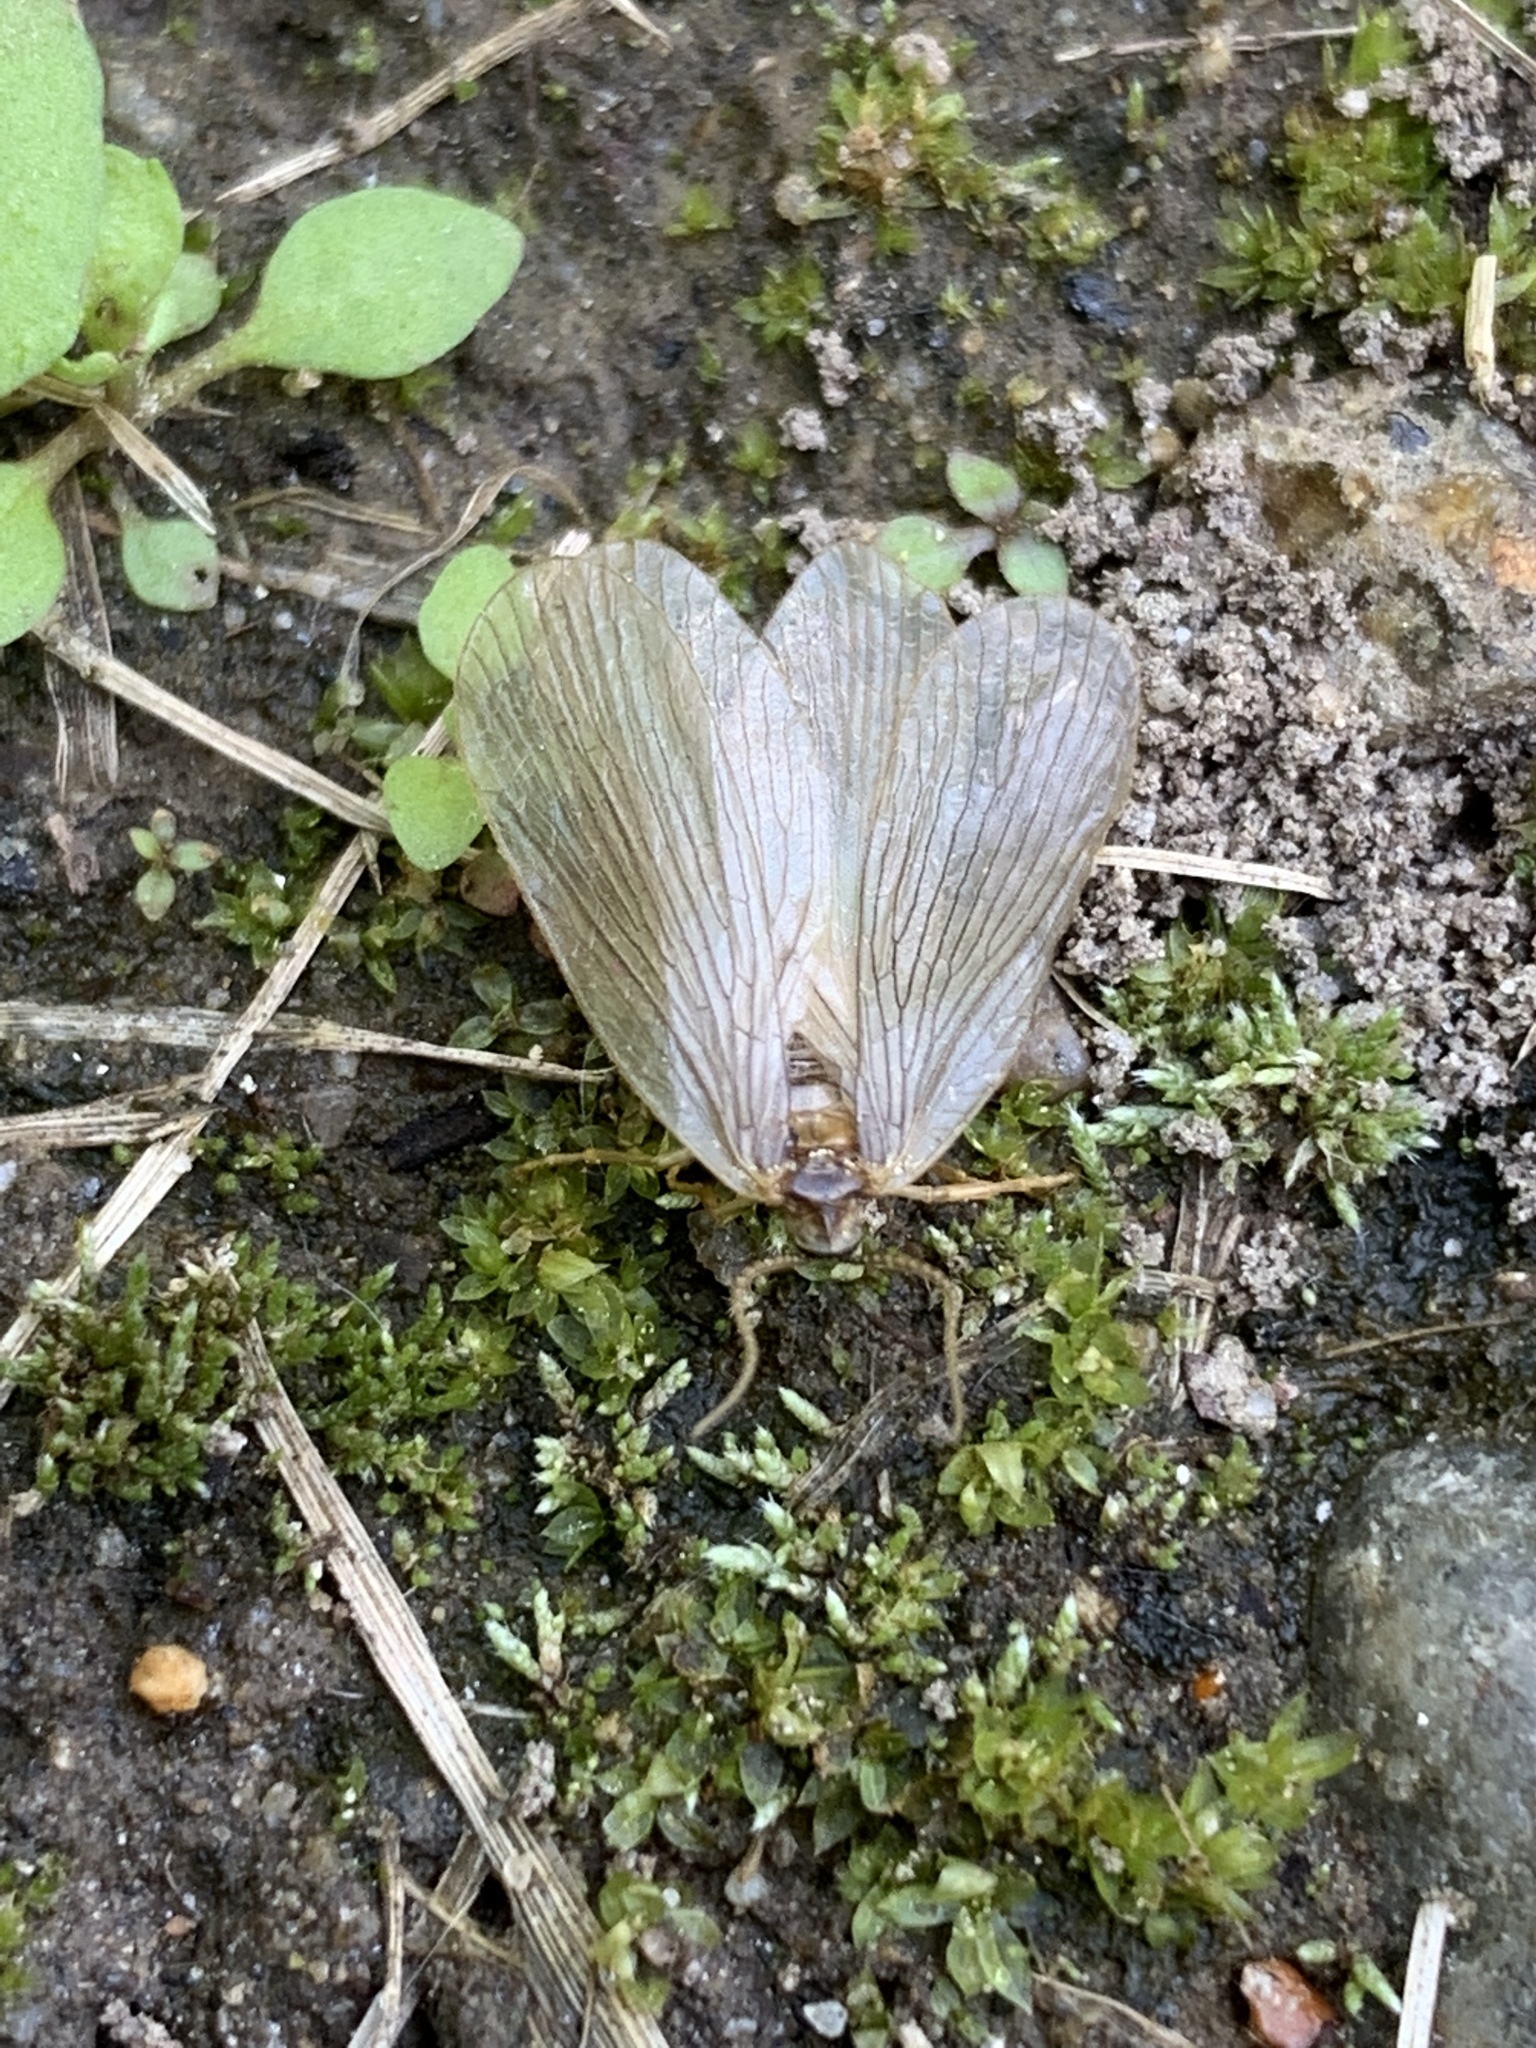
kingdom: Animalia
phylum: Arthropoda
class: Insecta
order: Mecoptera
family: Meropeidae
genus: Merope
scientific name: Merope tuber
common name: Forcepfly
